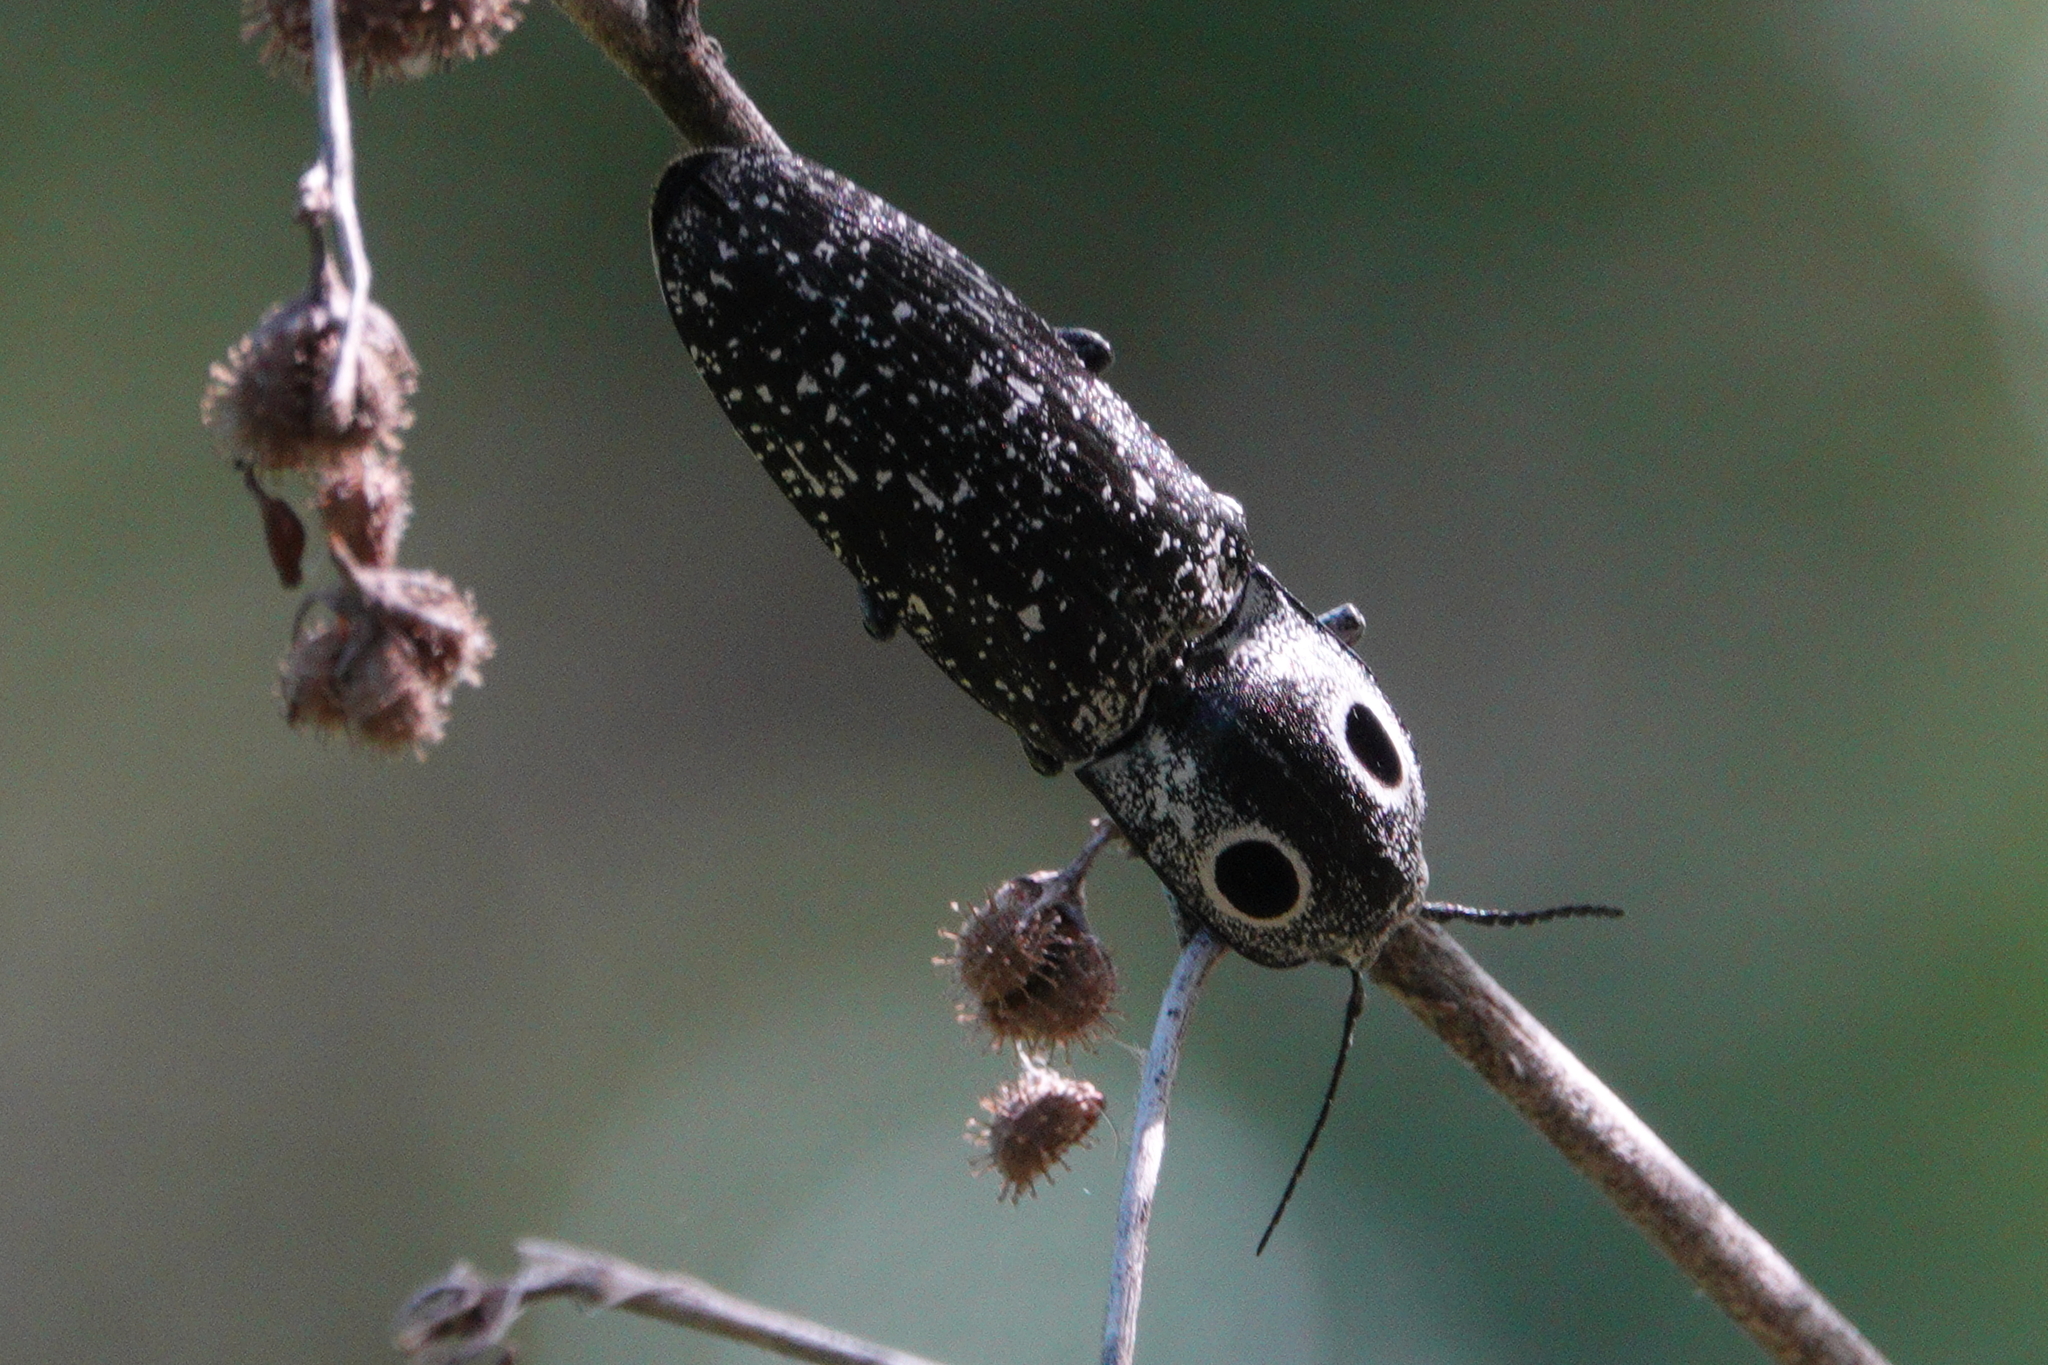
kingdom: Animalia
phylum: Arthropoda
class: Insecta
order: Coleoptera
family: Elateridae
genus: Alaus
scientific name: Alaus oculatus
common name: Eastern eyed click beetle
